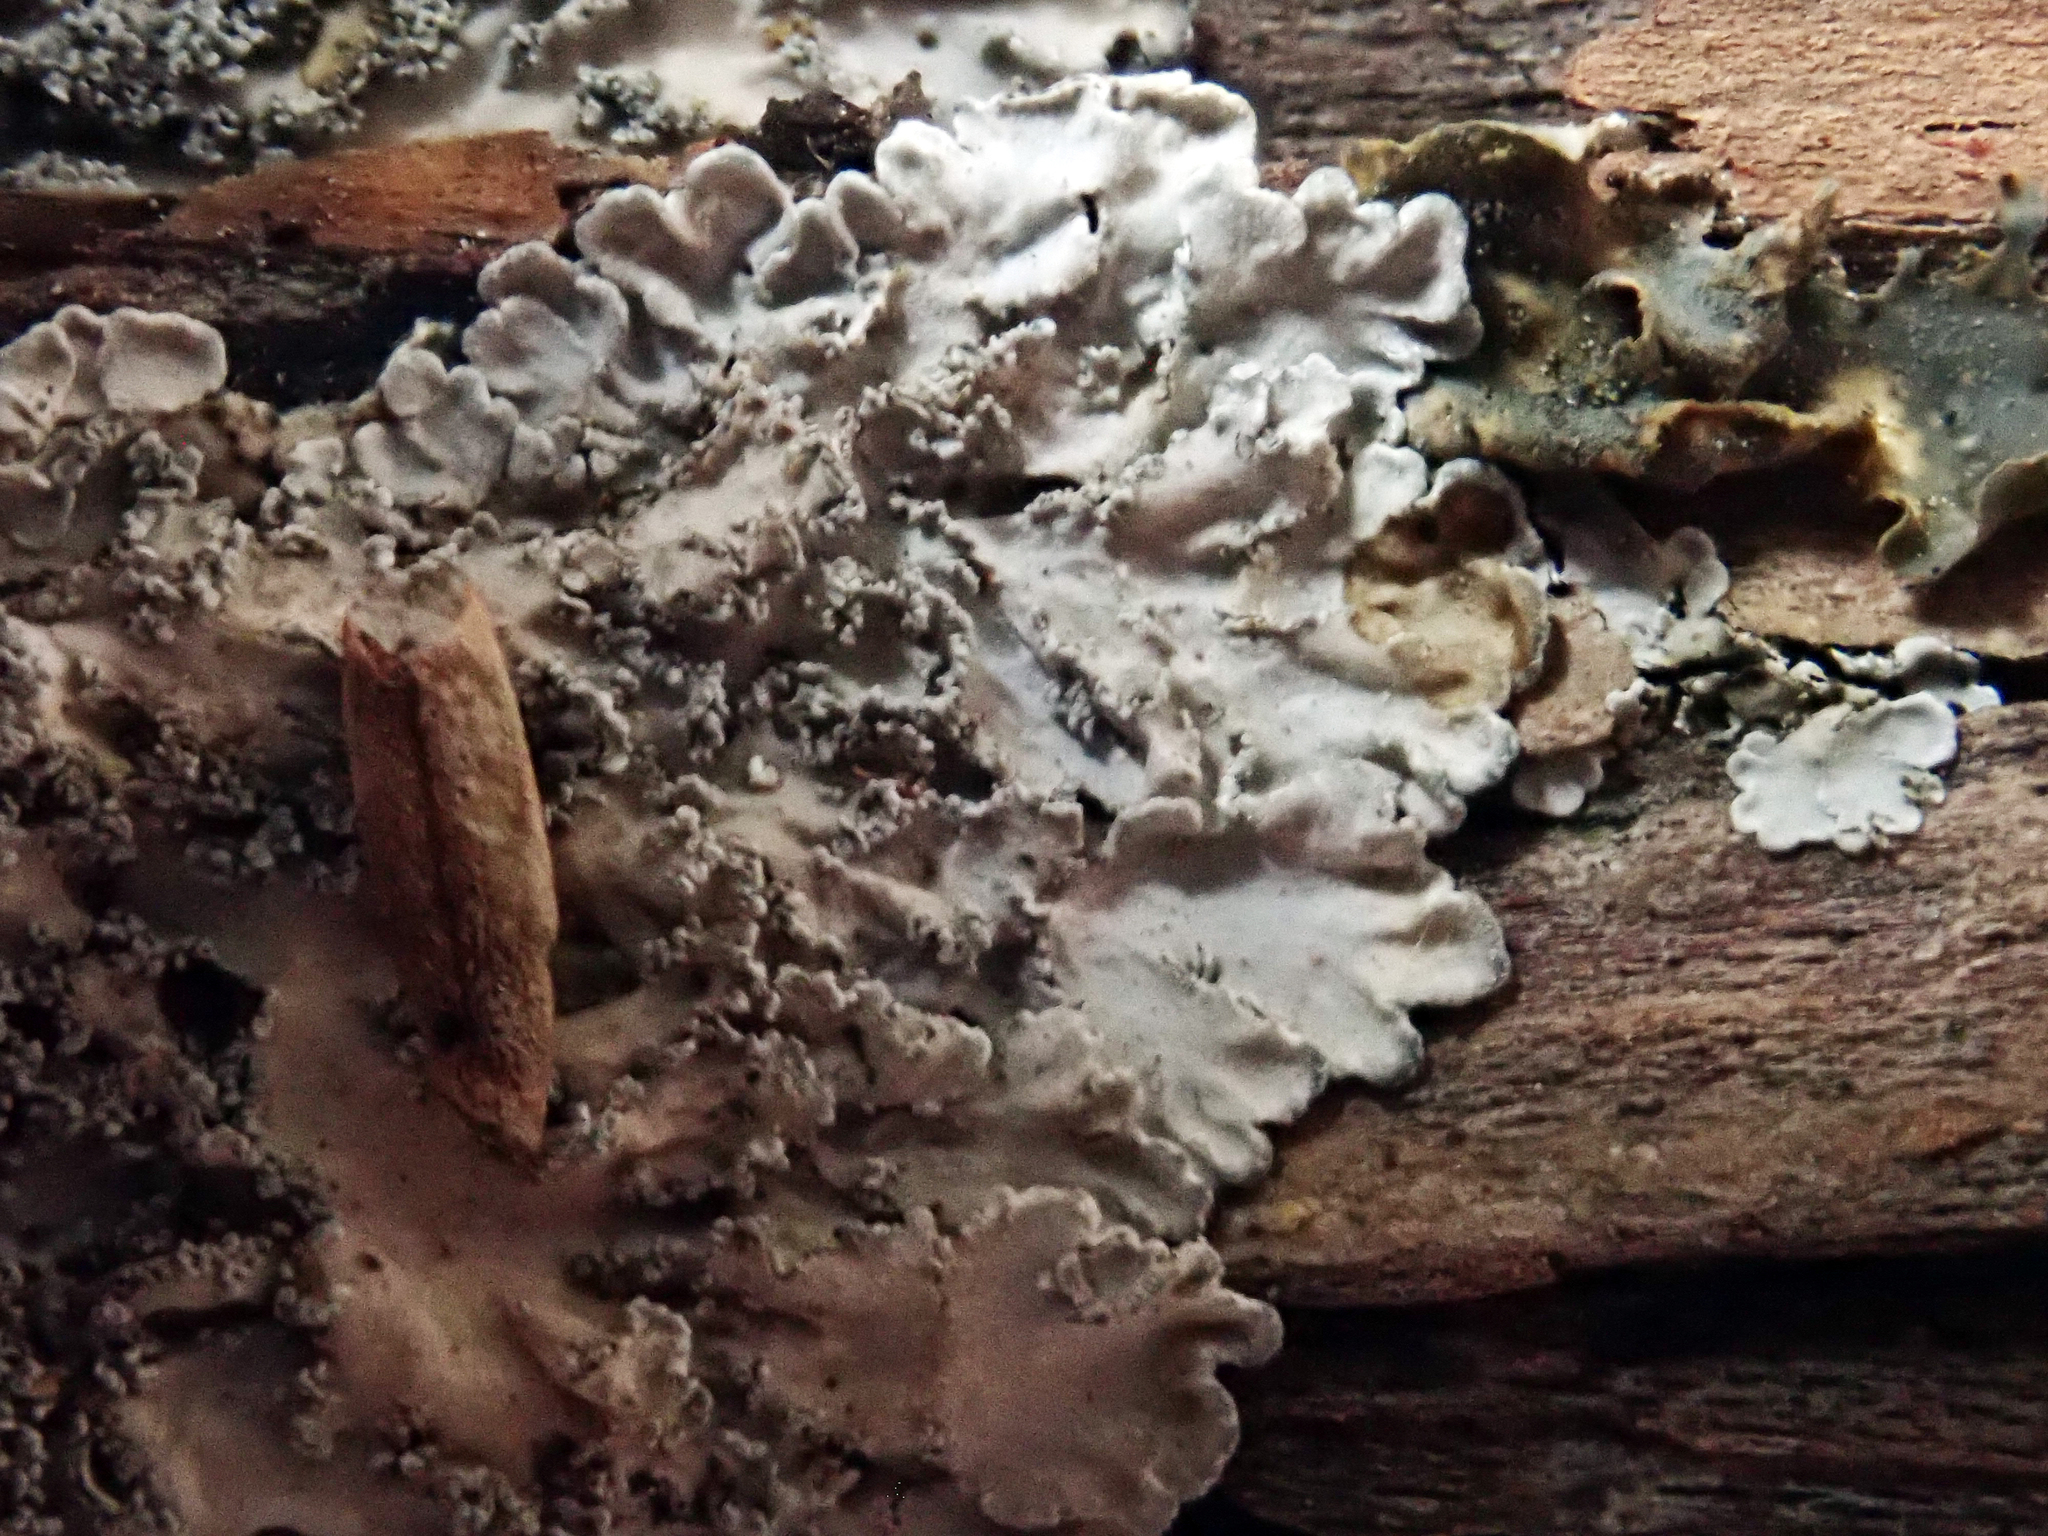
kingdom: Fungi
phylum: Ascomycota
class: Lecanoromycetes
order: Peltigerales
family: Pannariaceae
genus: Pannaria
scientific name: Pannaria elixii
